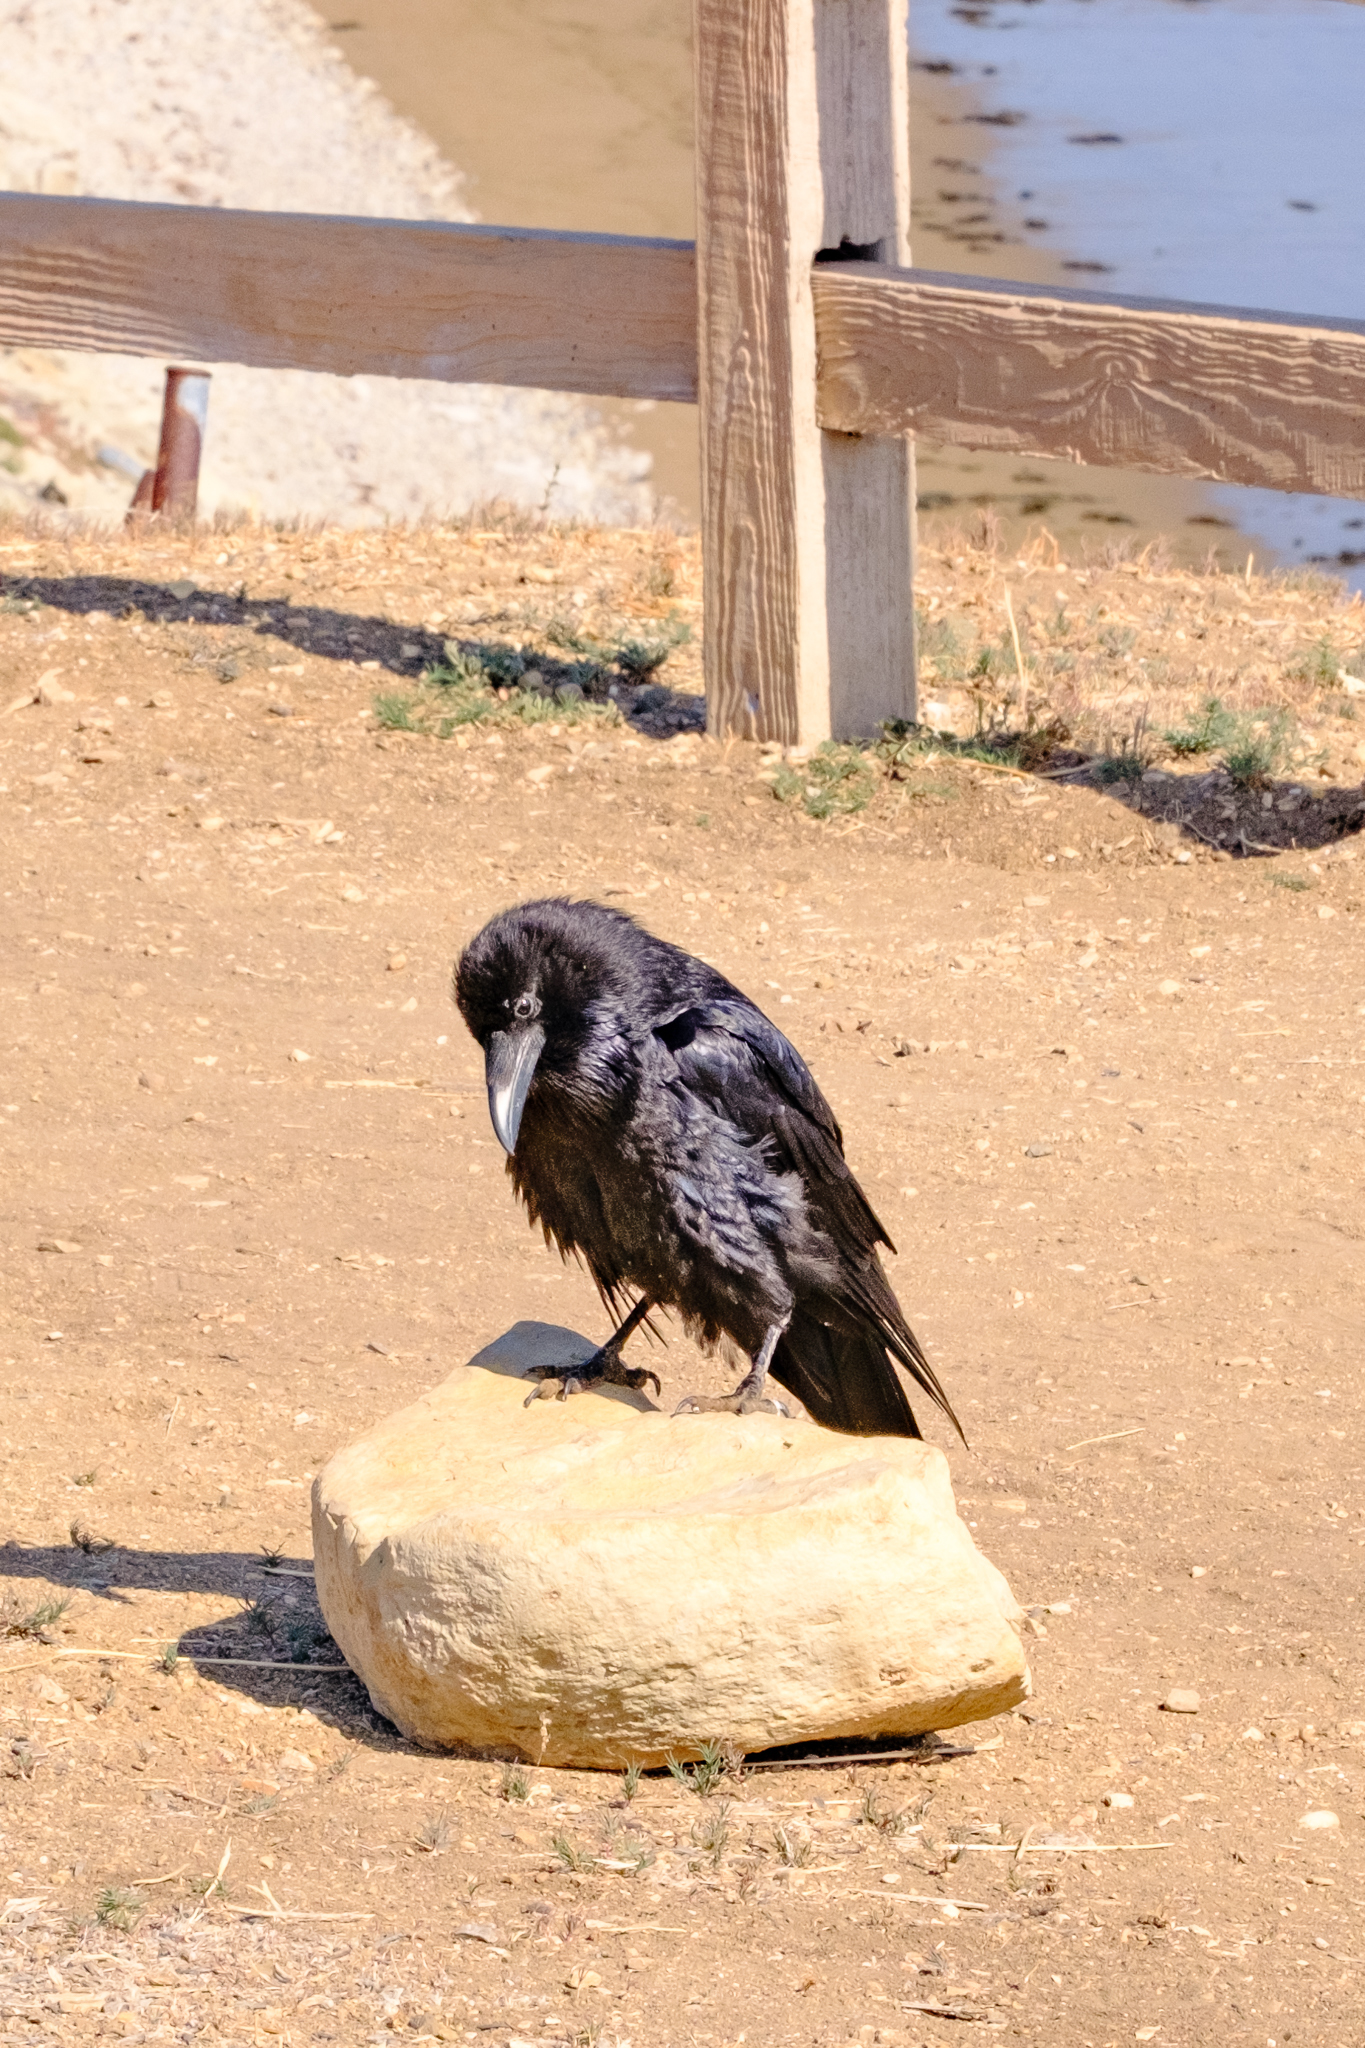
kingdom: Animalia
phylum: Chordata
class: Aves
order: Passeriformes
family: Corvidae
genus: Corvus
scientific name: Corvus corax
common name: Common raven
